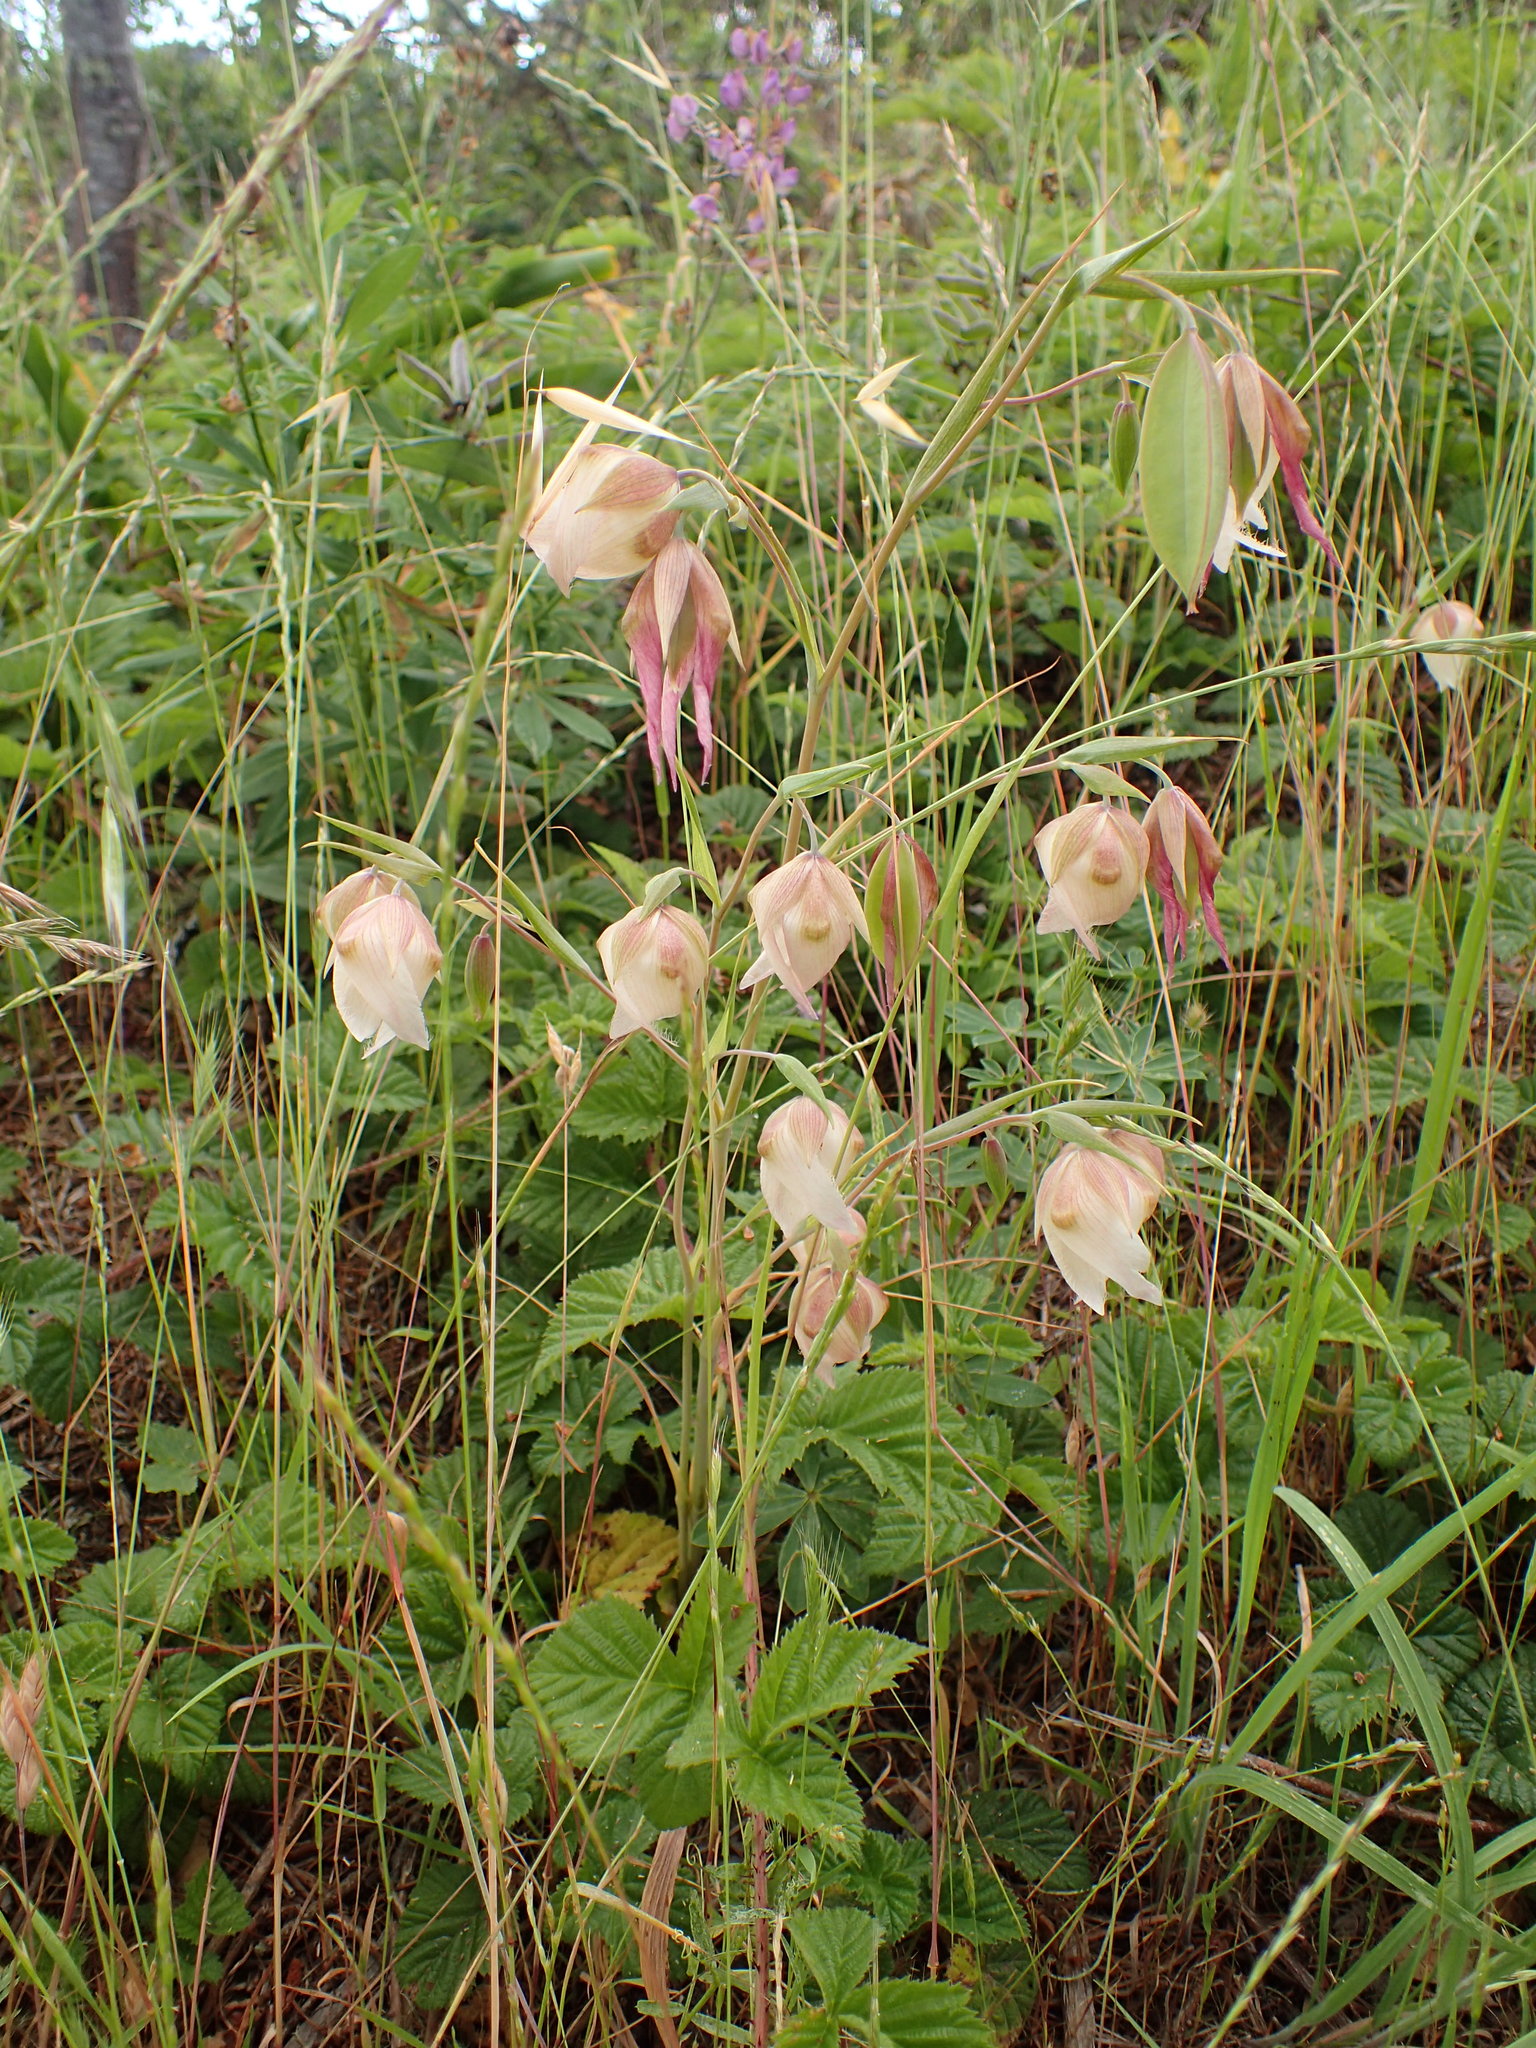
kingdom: Plantae
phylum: Tracheophyta
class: Liliopsida
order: Liliales
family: Liliaceae
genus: Calochortus
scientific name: Calochortus albus
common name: Fairy-lantern
